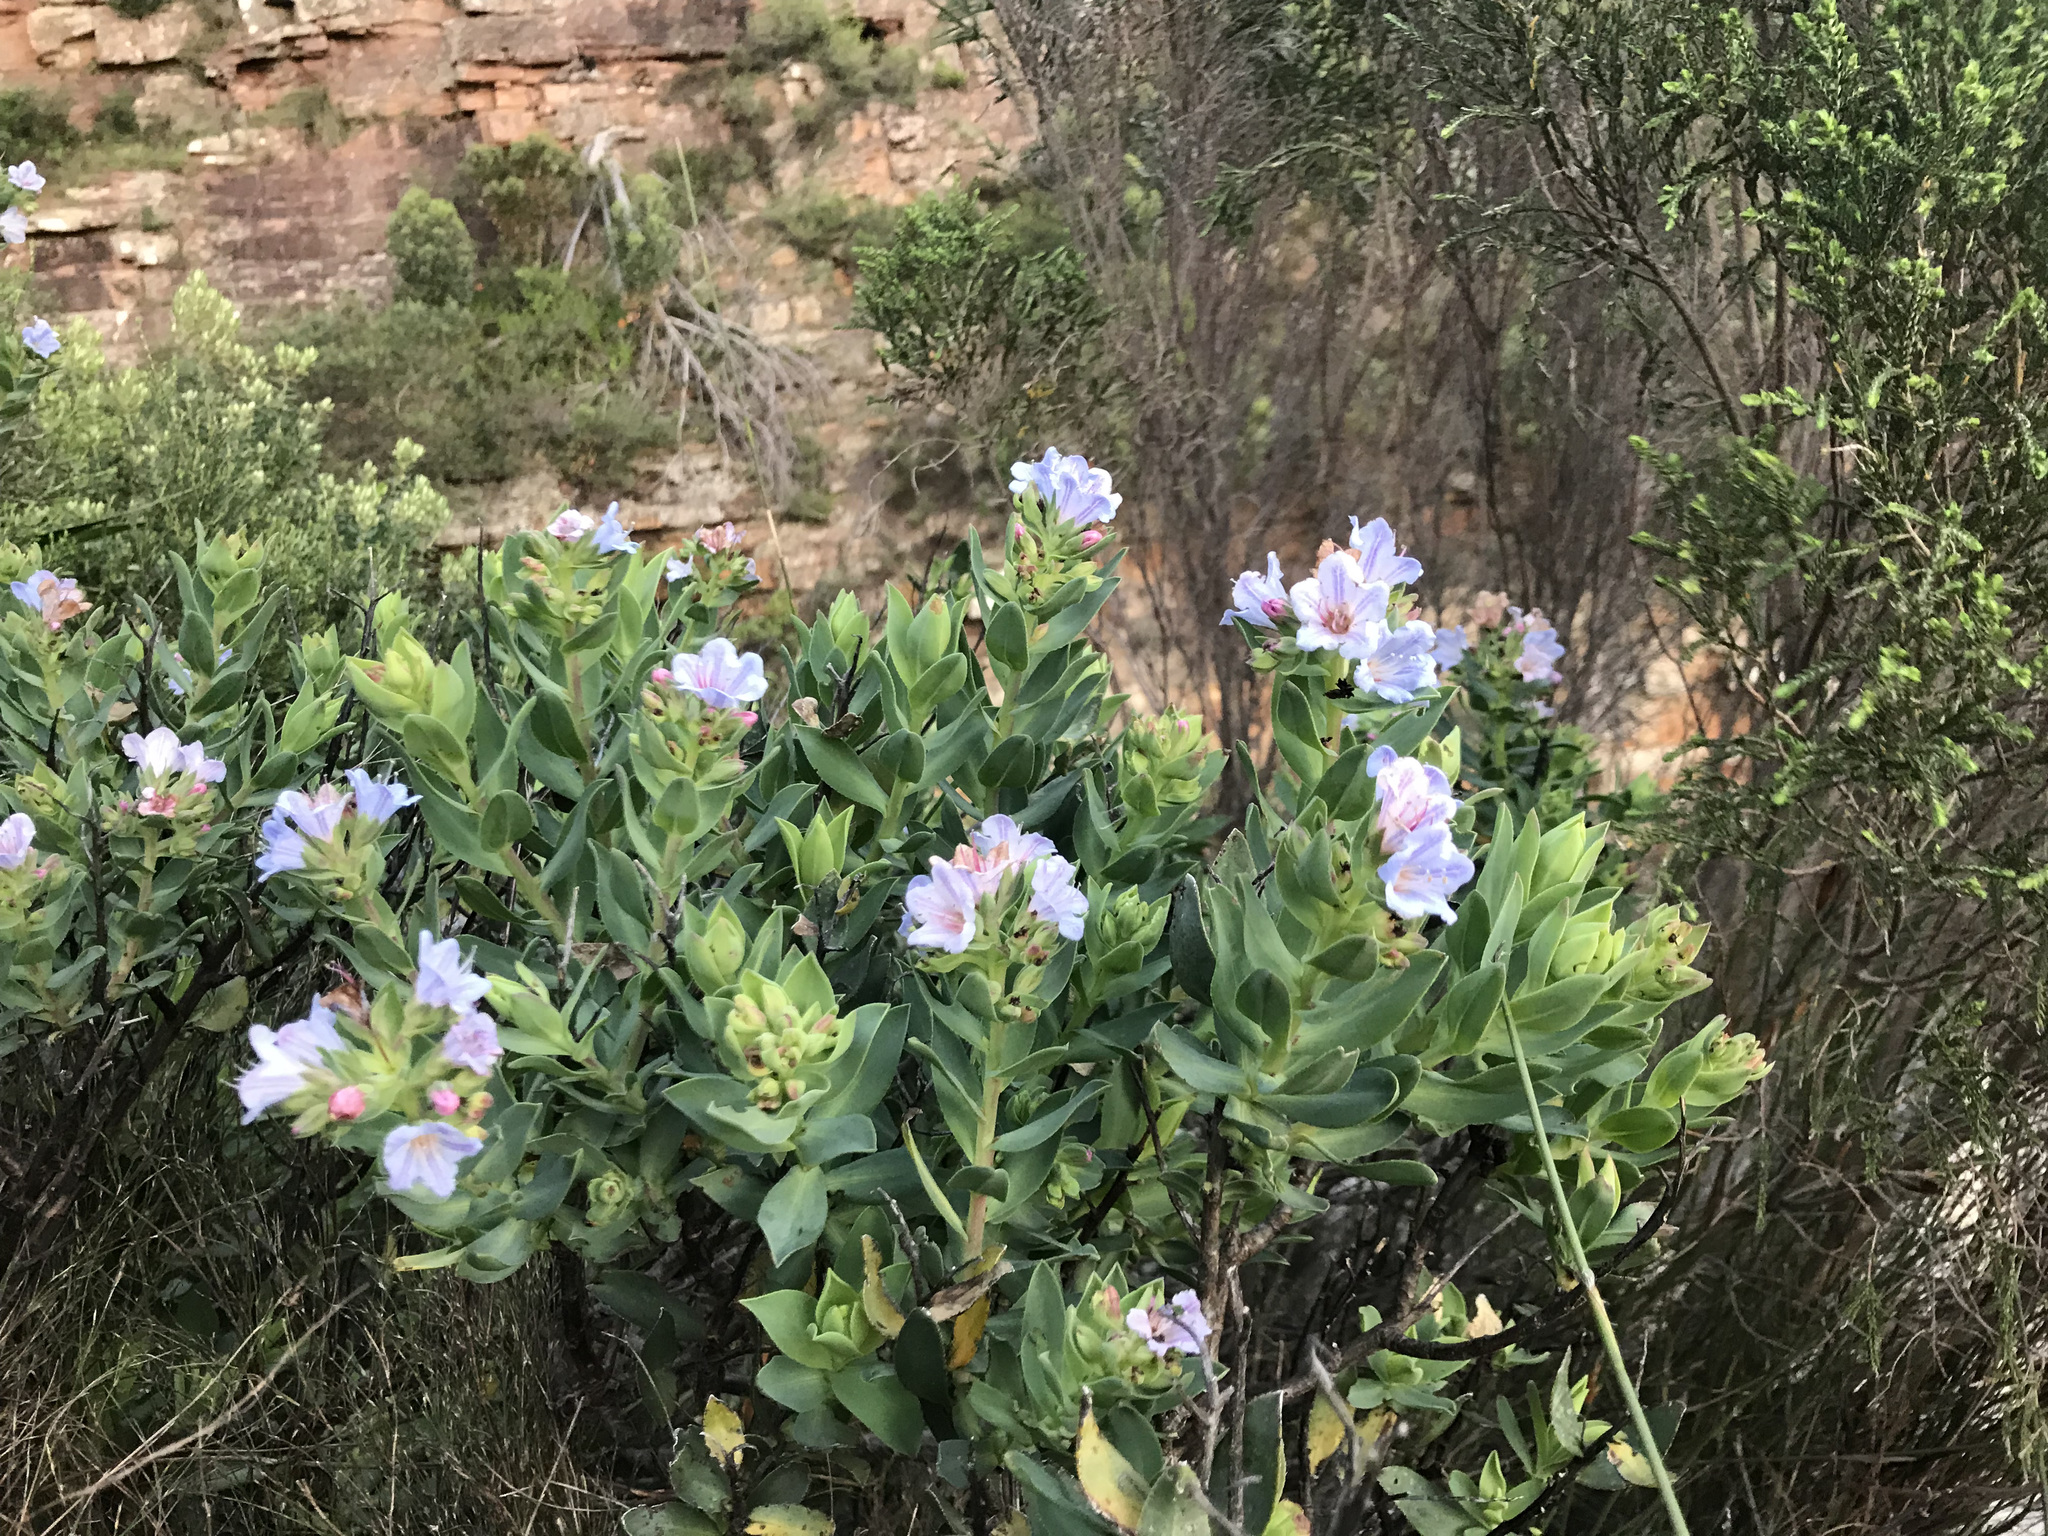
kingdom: Plantae
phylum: Tracheophyta
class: Magnoliopsida
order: Boraginales
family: Boraginaceae
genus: Lobostemon
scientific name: Lobostemon fruticosus
